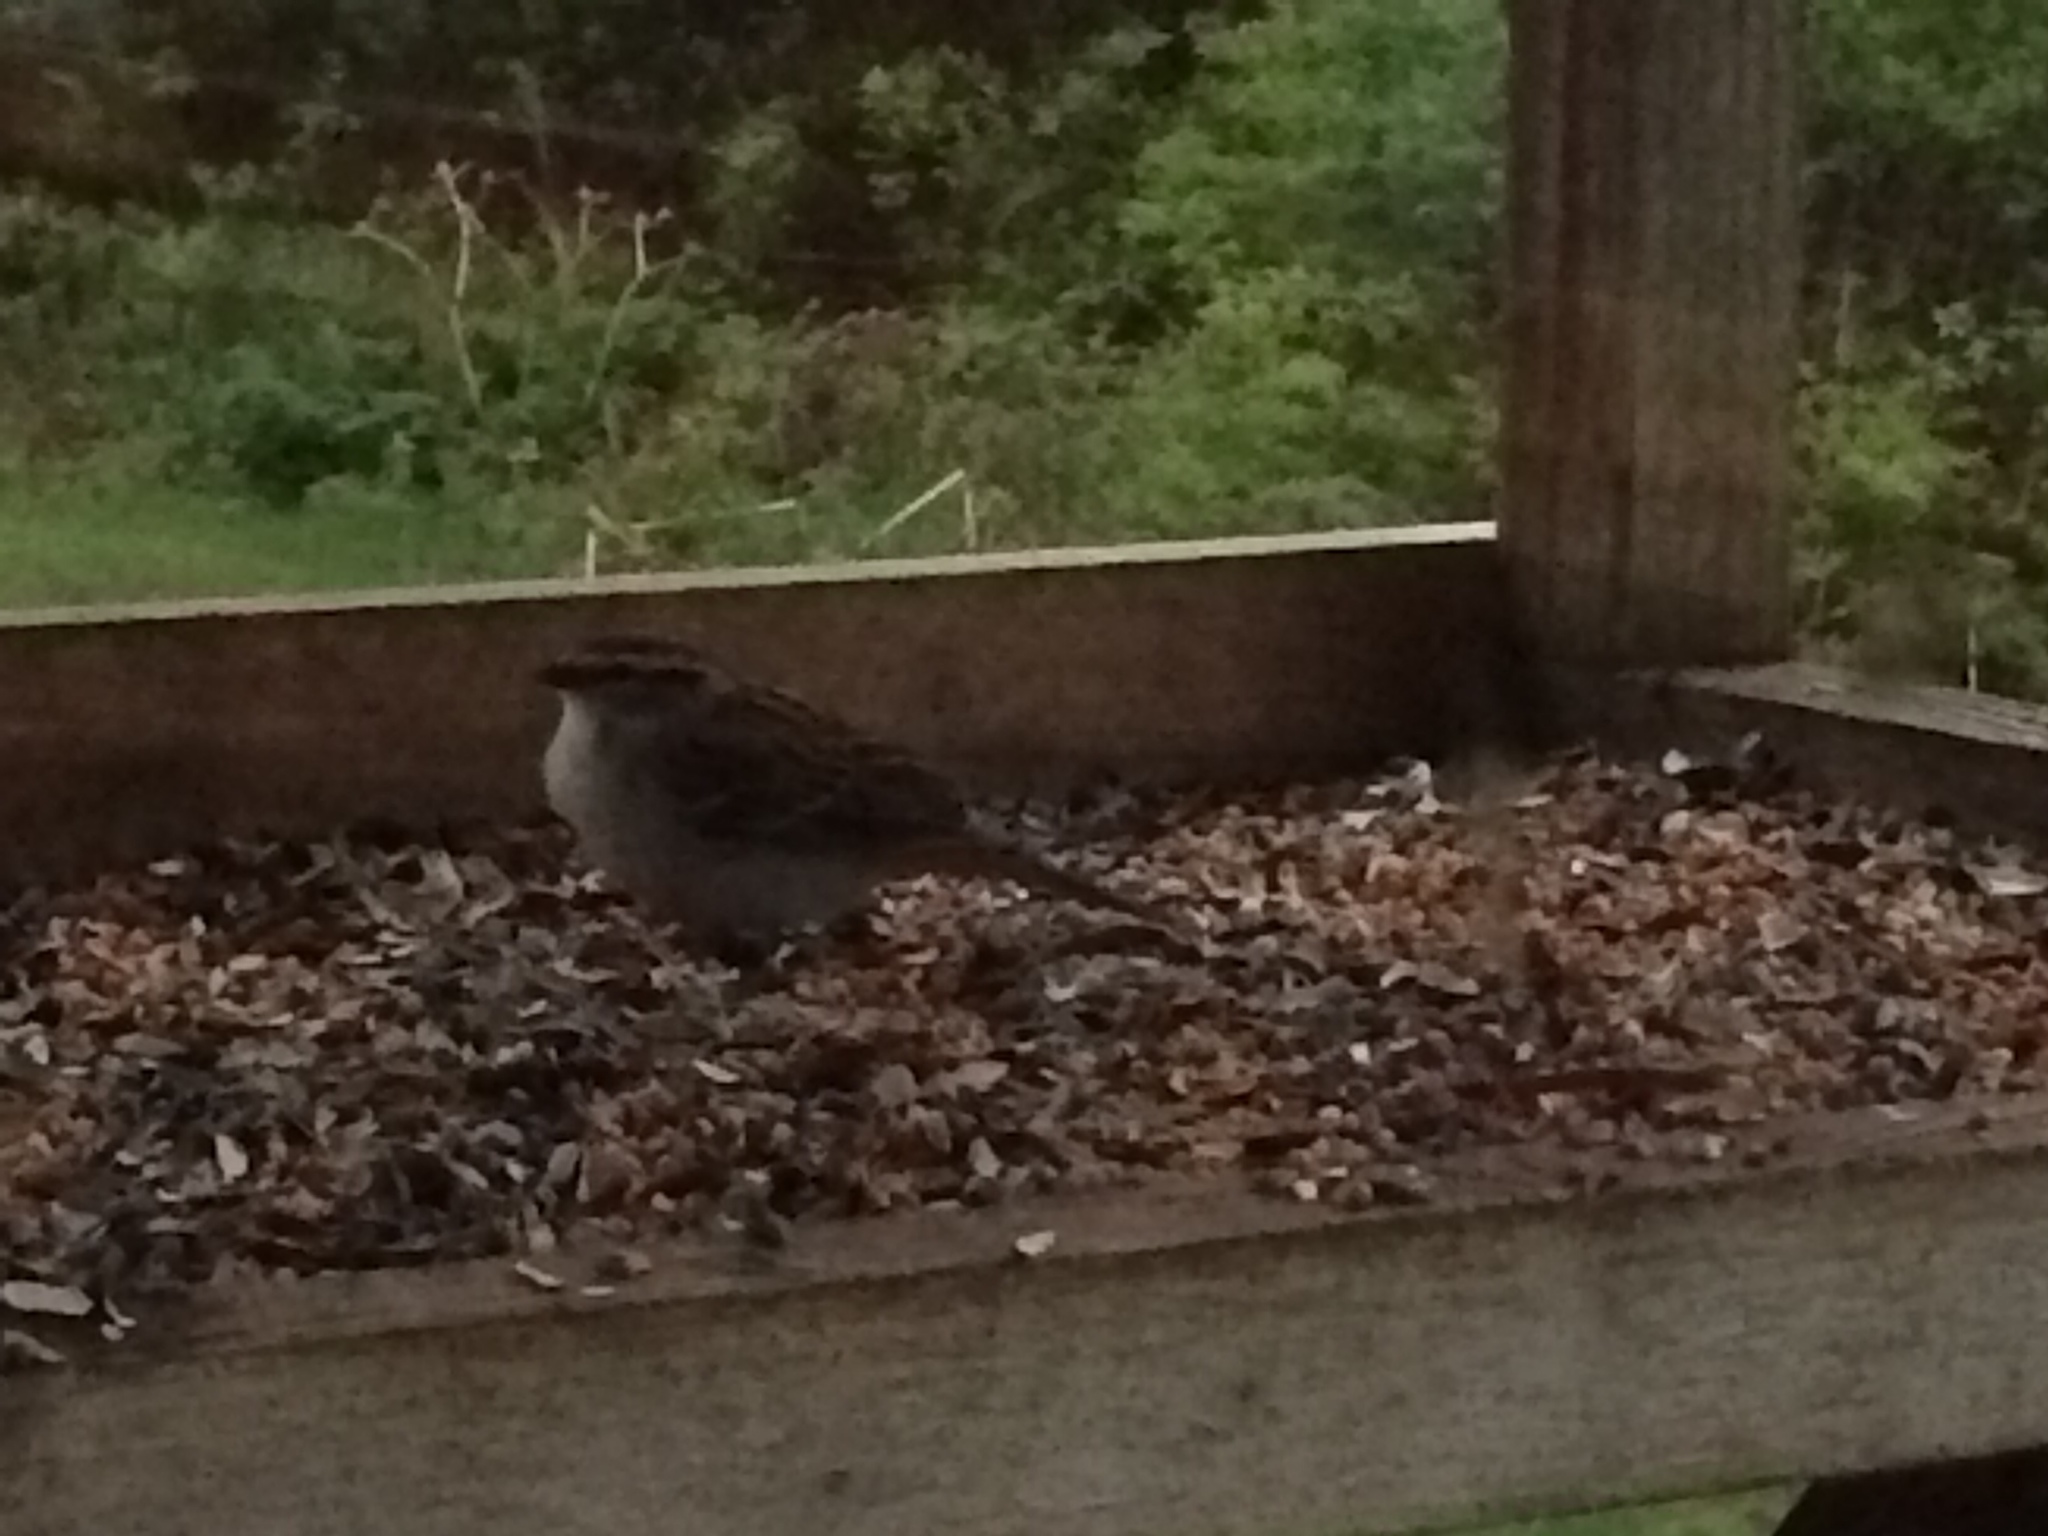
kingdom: Animalia
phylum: Chordata
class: Aves
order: Passeriformes
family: Passerellidae
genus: Spizella
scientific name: Spizella passerina
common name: Chipping sparrow
